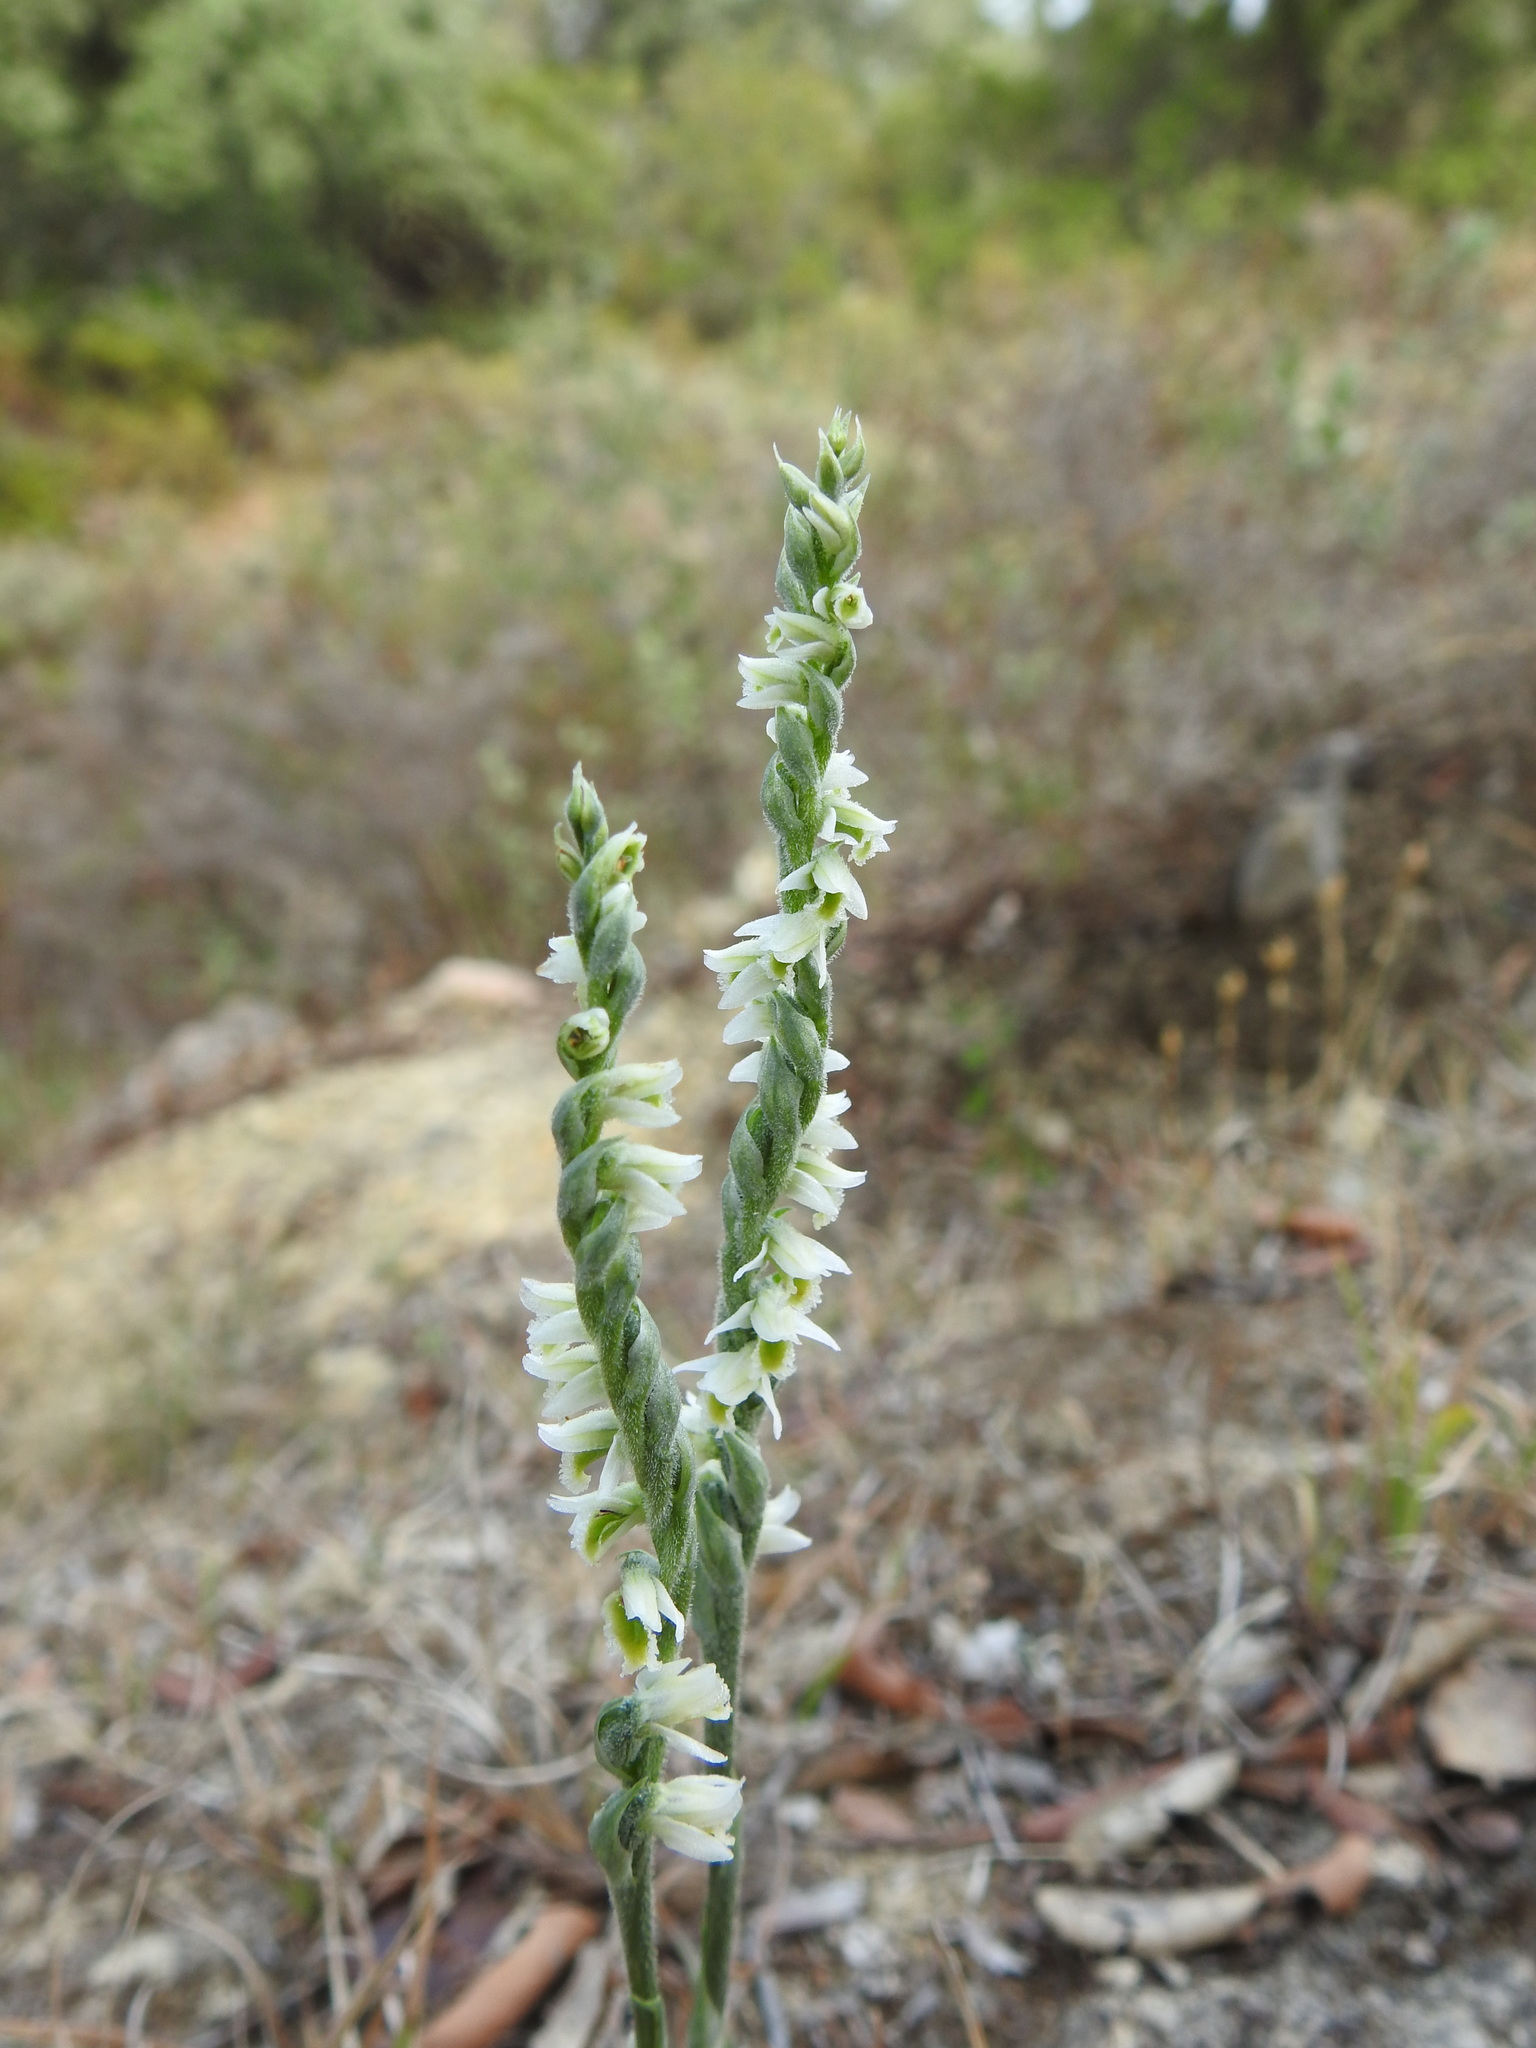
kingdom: Plantae
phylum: Tracheophyta
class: Liliopsida
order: Asparagales
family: Orchidaceae
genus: Spiranthes
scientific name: Spiranthes spiralis
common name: Autumn lady's-tresses
